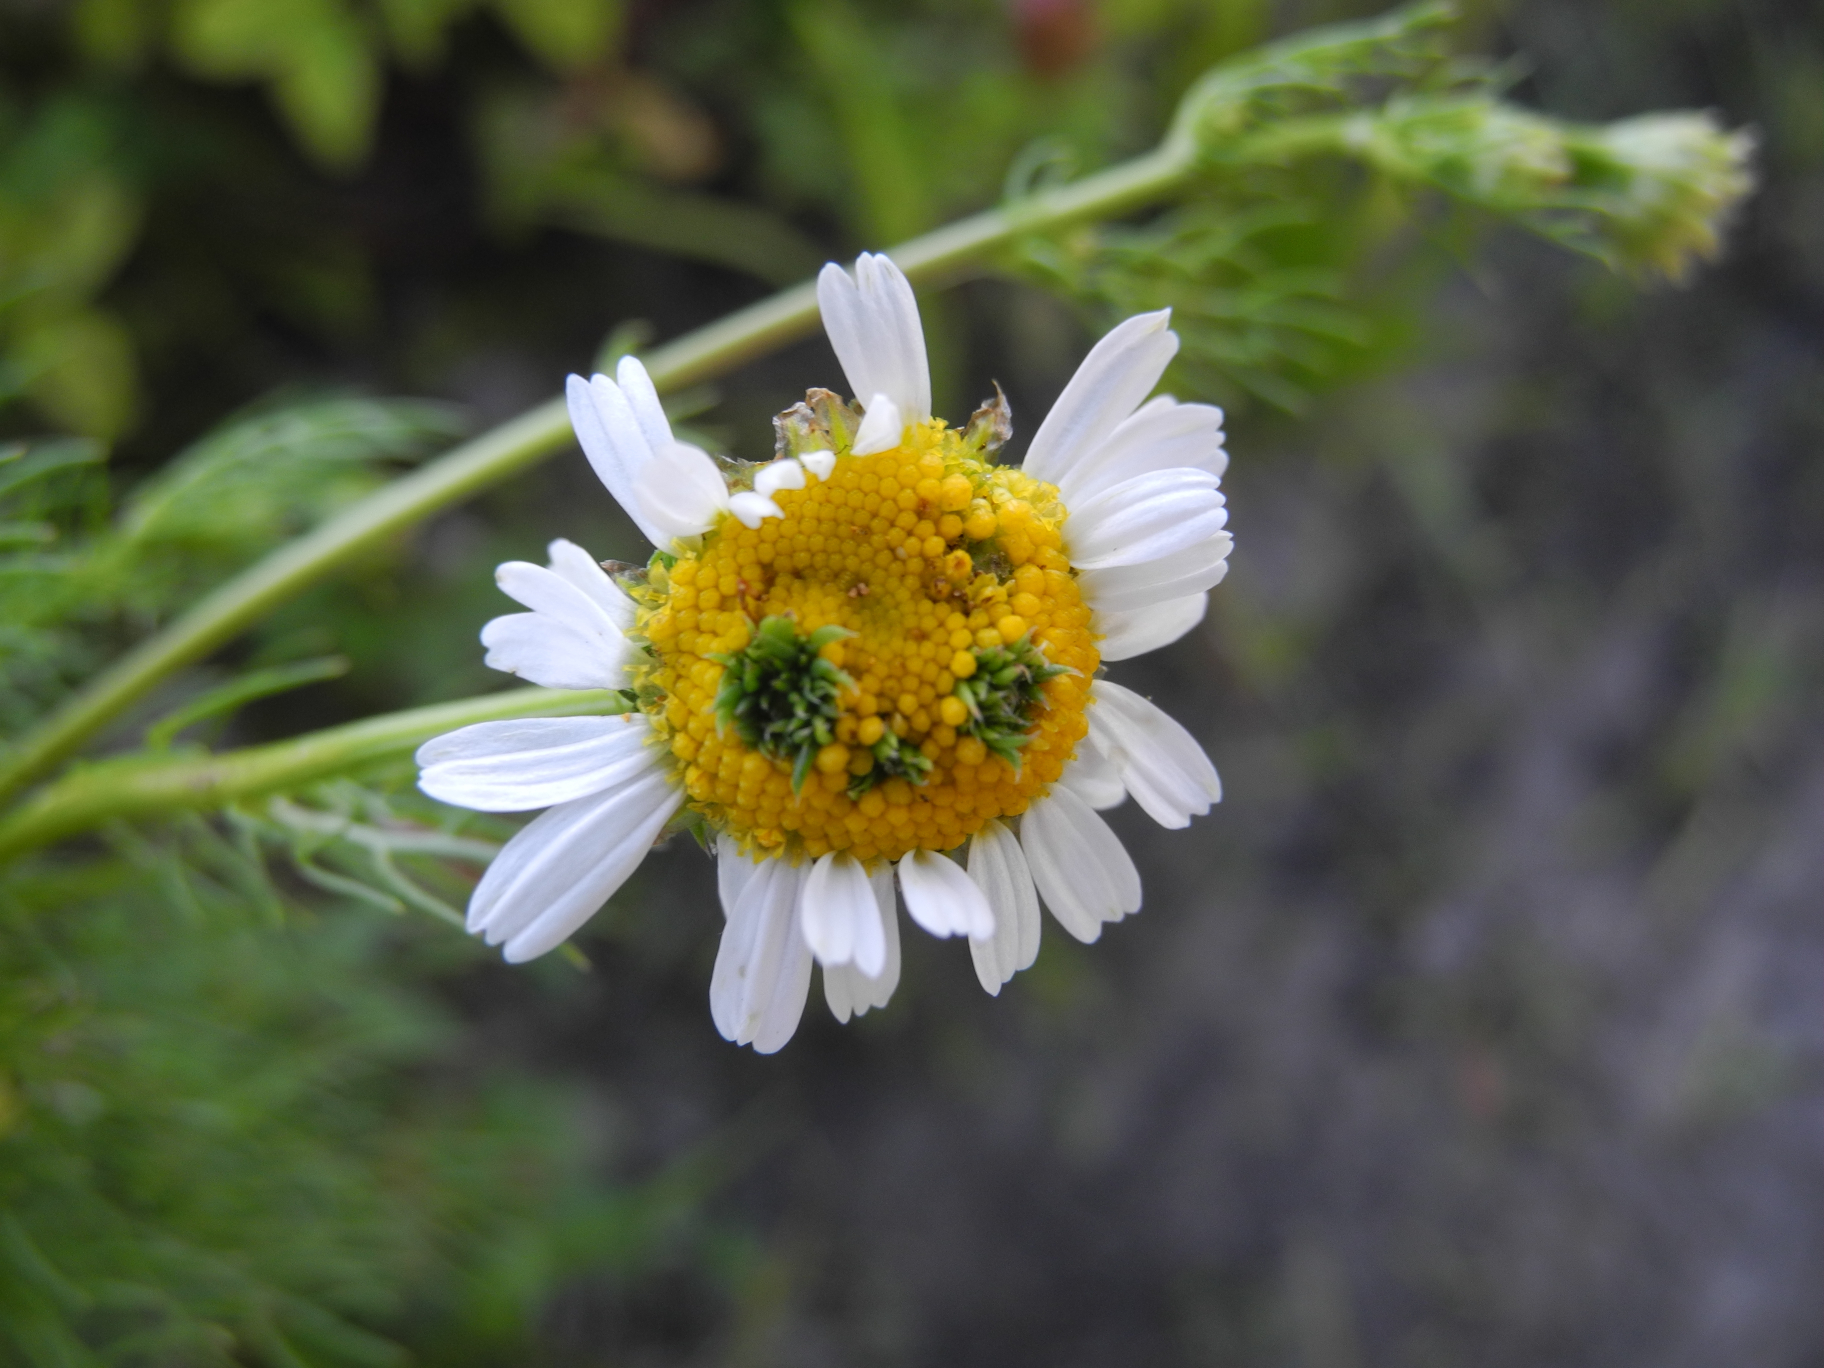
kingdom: Plantae
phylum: Tracheophyta
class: Magnoliopsida
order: Asterales
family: Asteraceae
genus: Tripleurospermum
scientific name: Tripleurospermum inodorum
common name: Scentless mayweed
